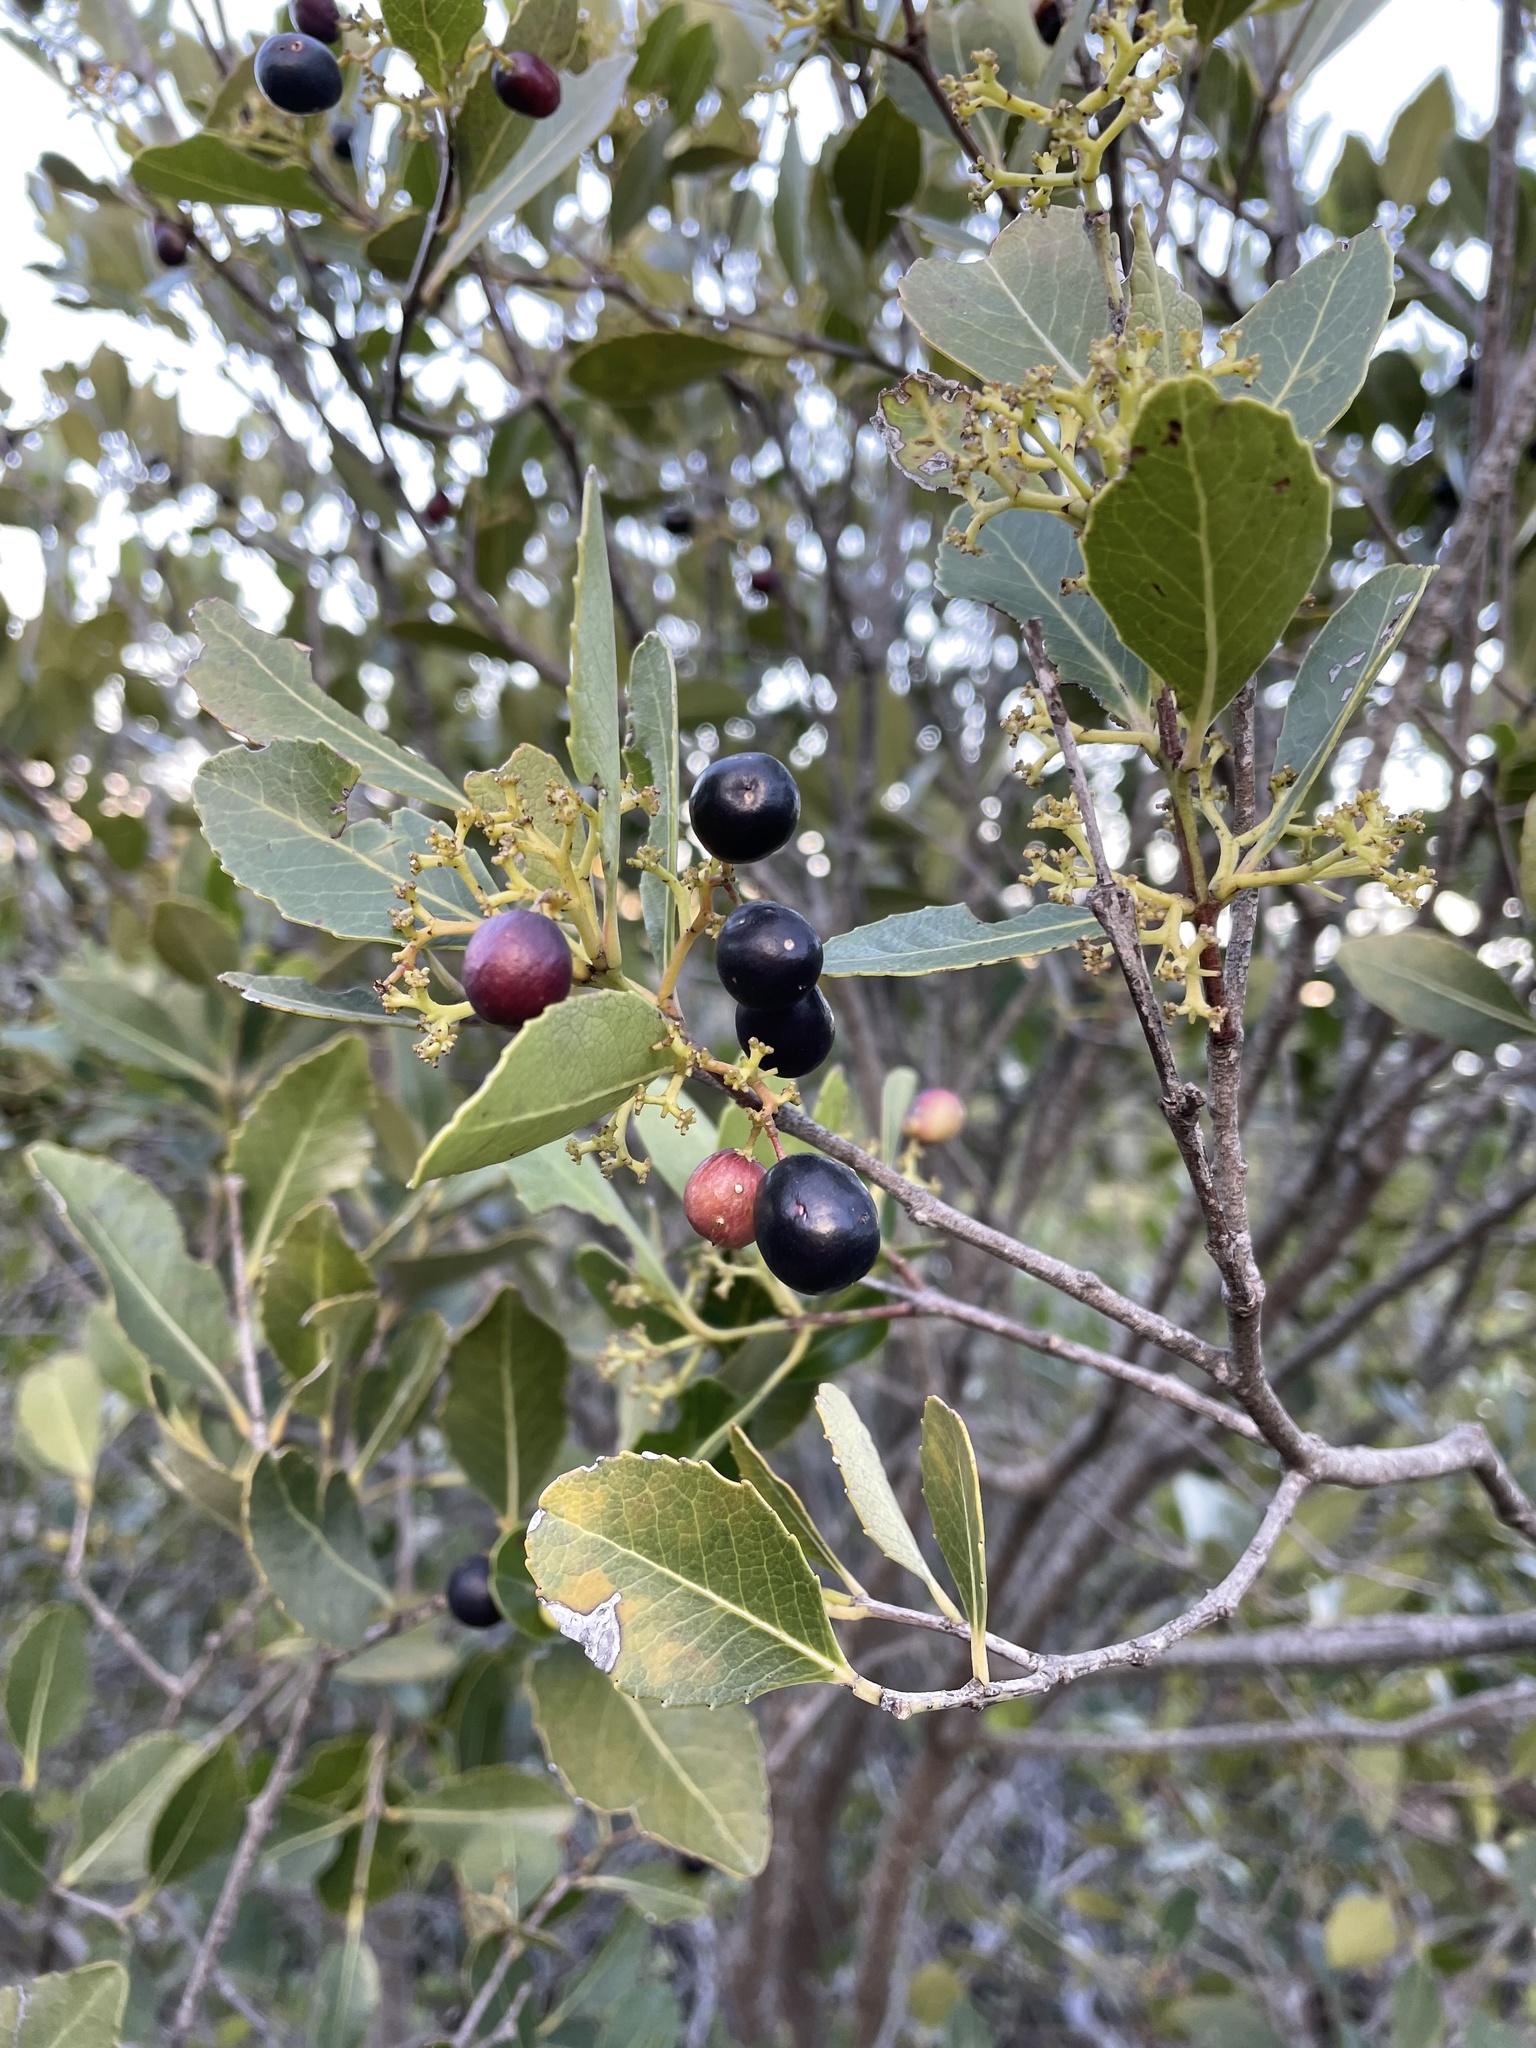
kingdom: Plantae
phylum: Tracheophyta
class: Magnoliopsida
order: Celastrales
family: Celastraceae
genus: Cassine
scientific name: Cassine peragua
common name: Cape saffron
